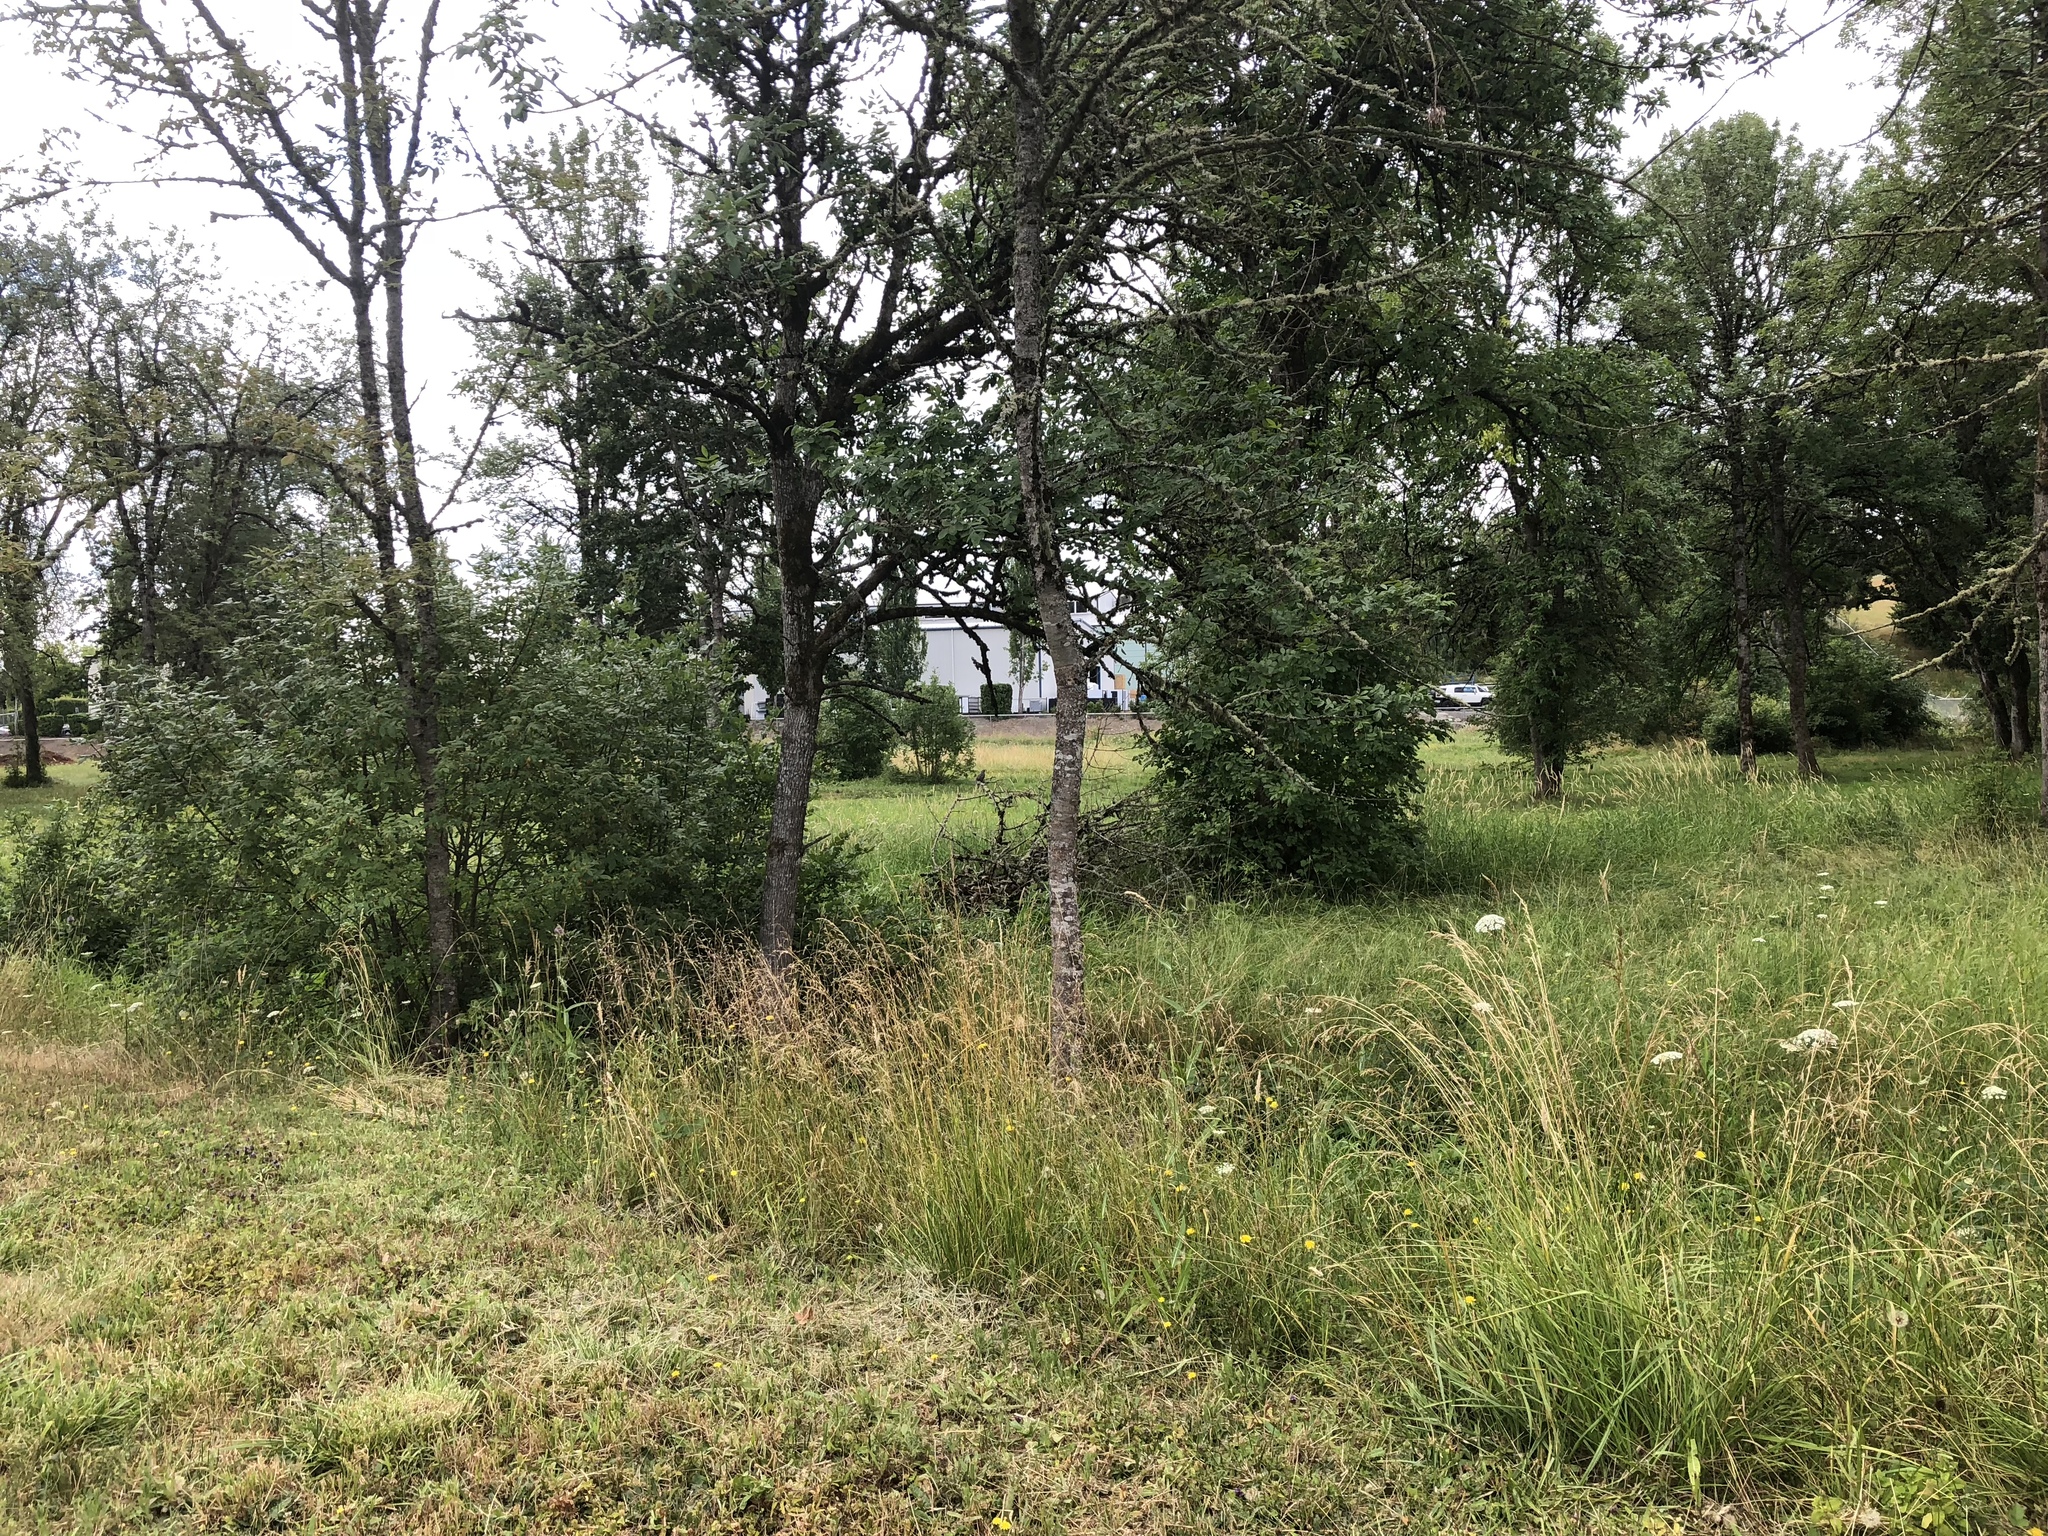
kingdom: Animalia
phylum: Chordata
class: Aves
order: Galliformes
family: Odontophoridae
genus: Callipepla
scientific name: Callipepla californica
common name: California quail
